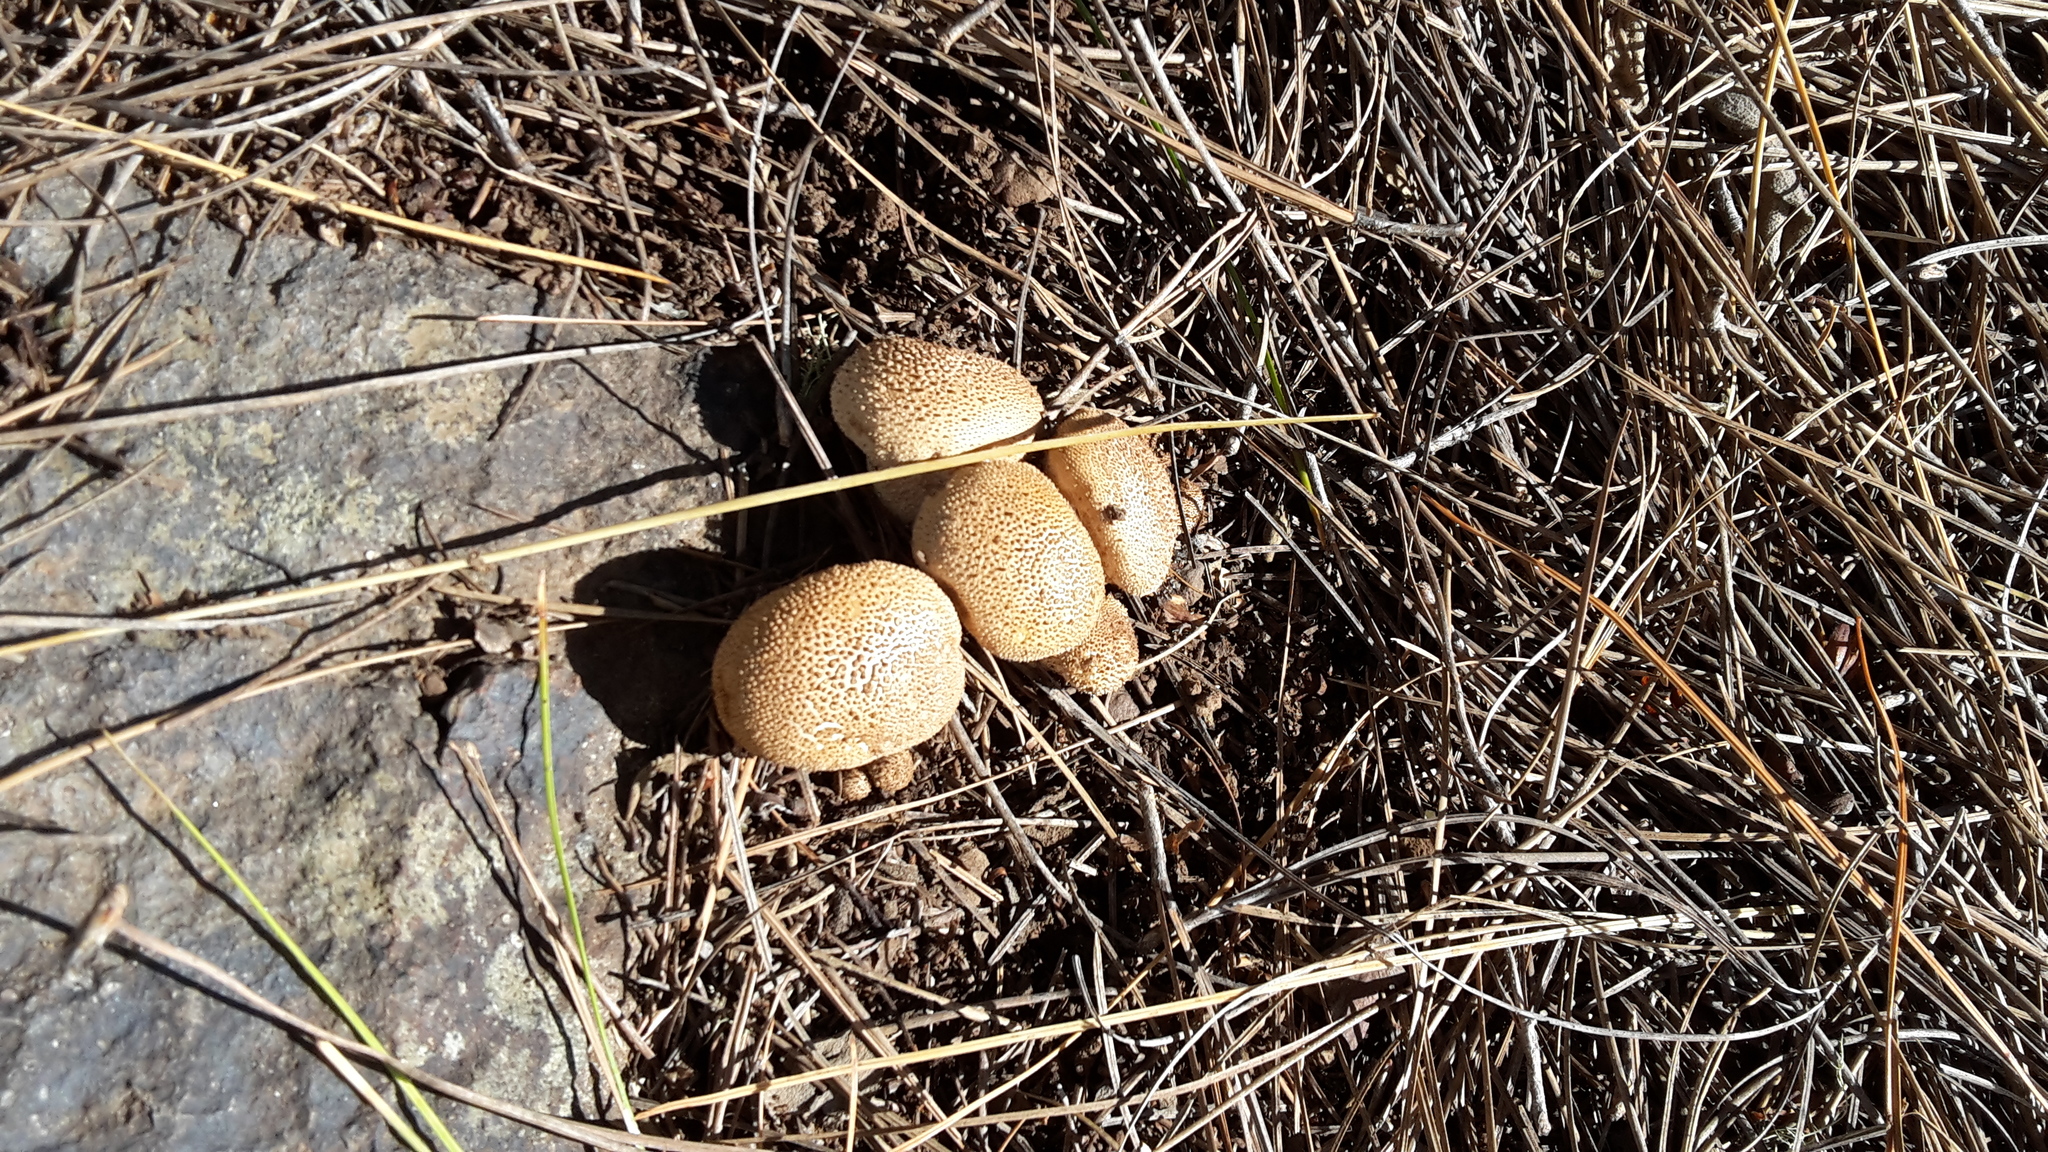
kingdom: Fungi
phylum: Basidiomycota
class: Agaricomycetes
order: Boletales
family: Sclerodermataceae
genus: Scleroderma
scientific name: Scleroderma citrinum
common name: Common earthball
